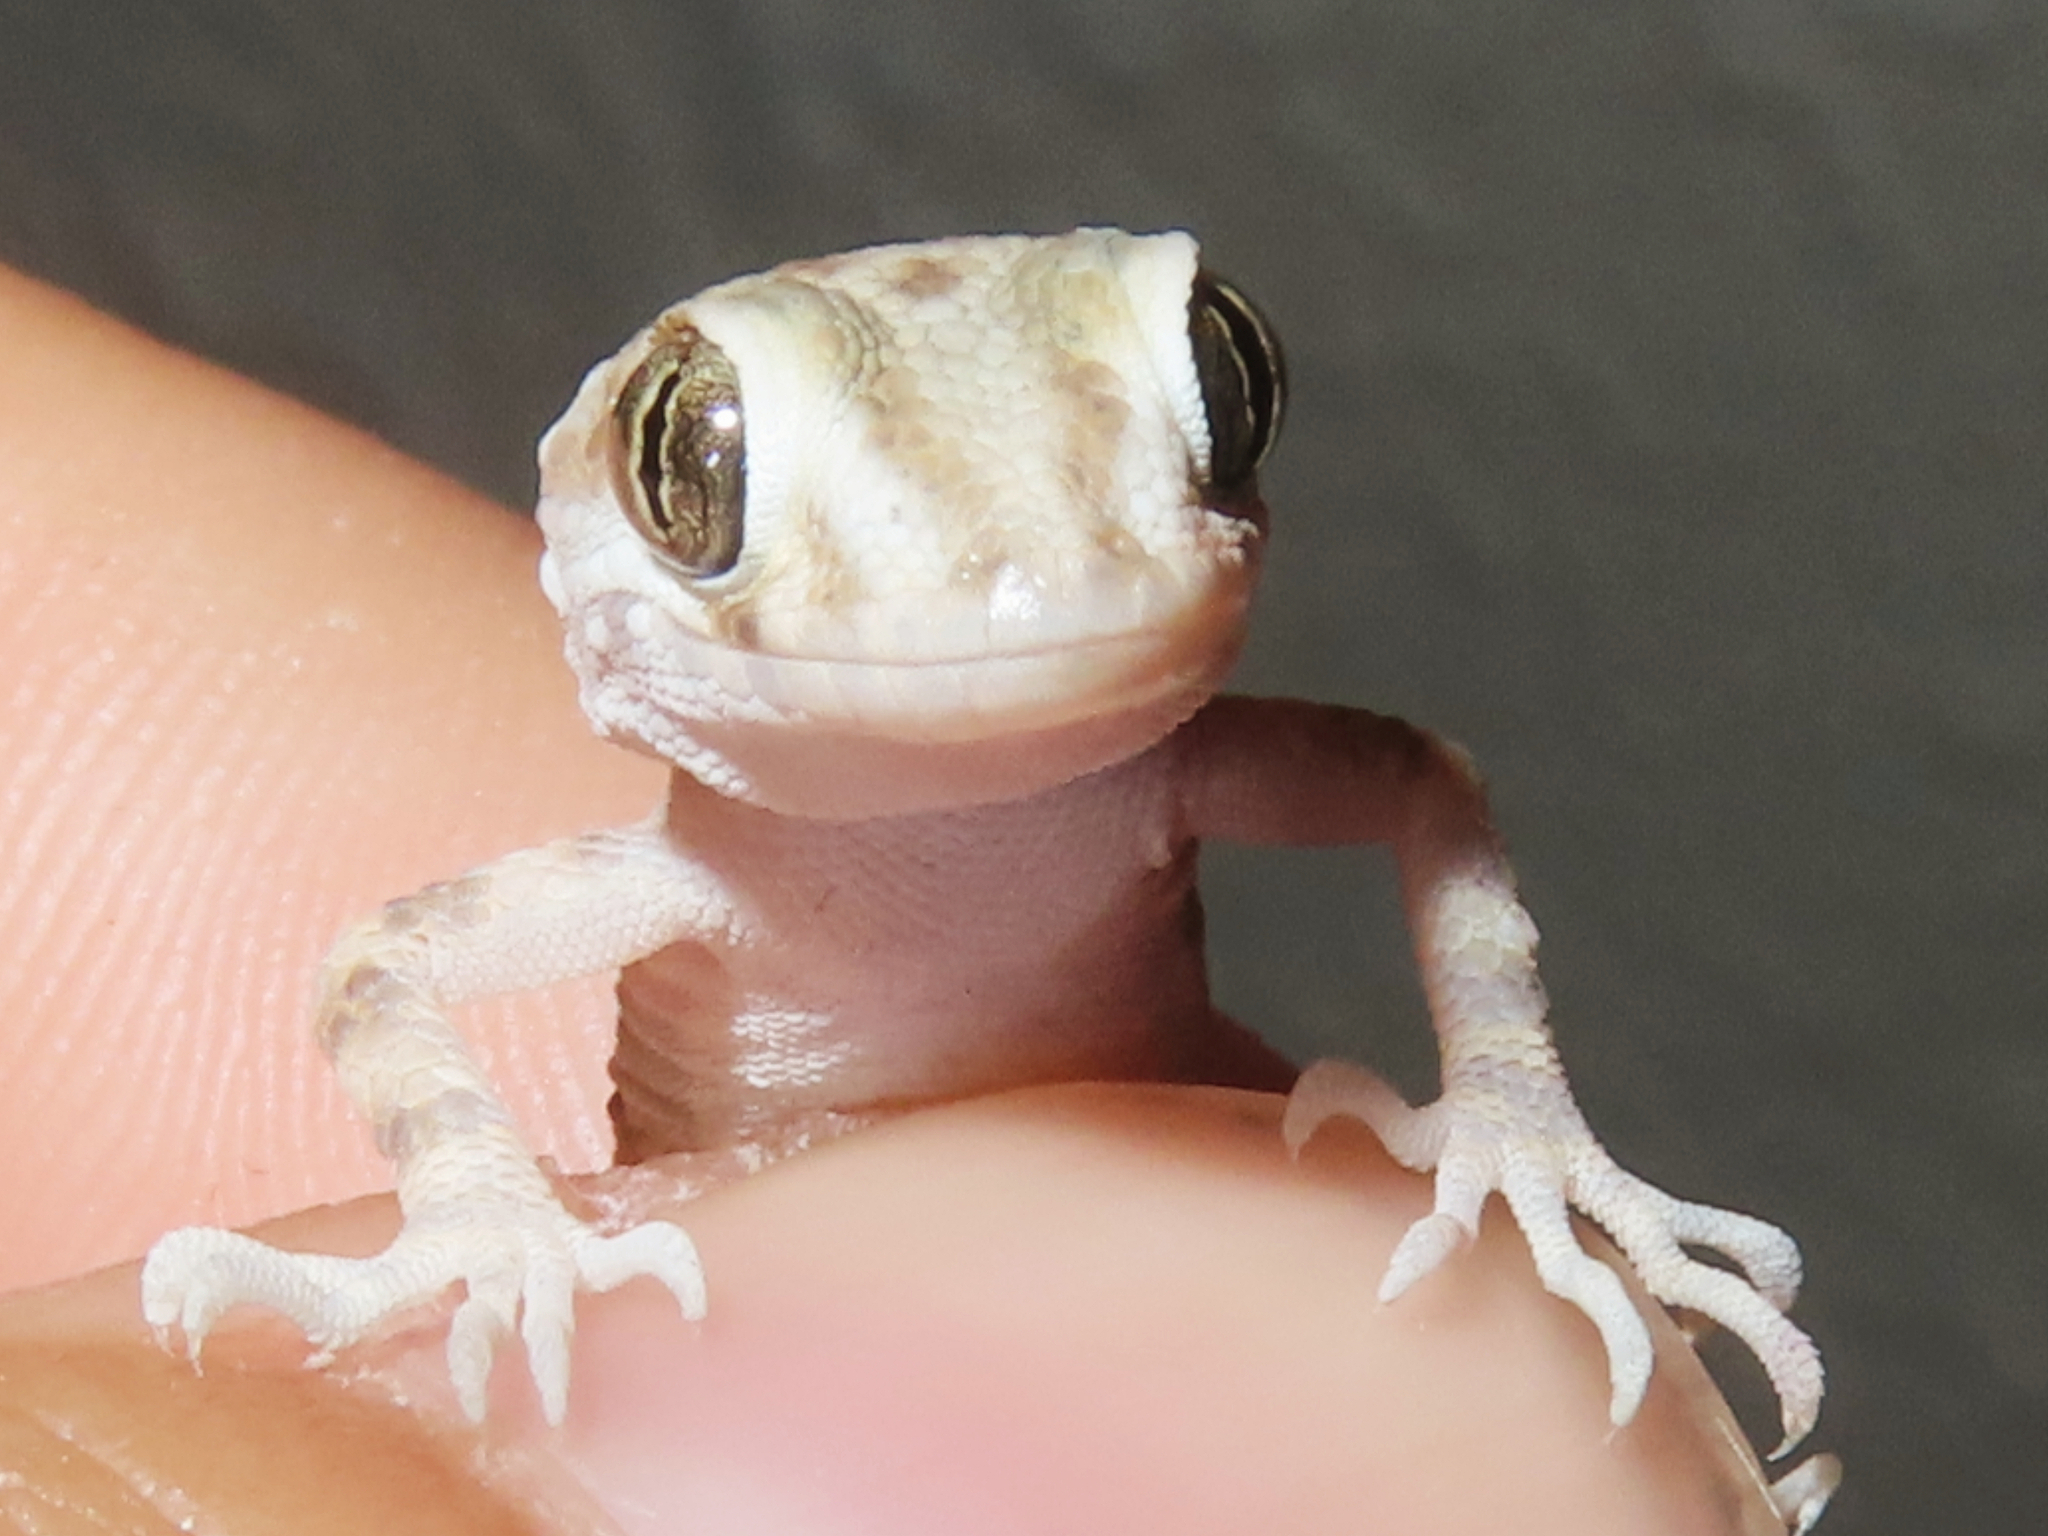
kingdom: Animalia
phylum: Chordata
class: Squamata
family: Gekkonidae
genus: Tenuidactylus
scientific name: Tenuidactylus caspius
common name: Caspian bent-toed gecko
